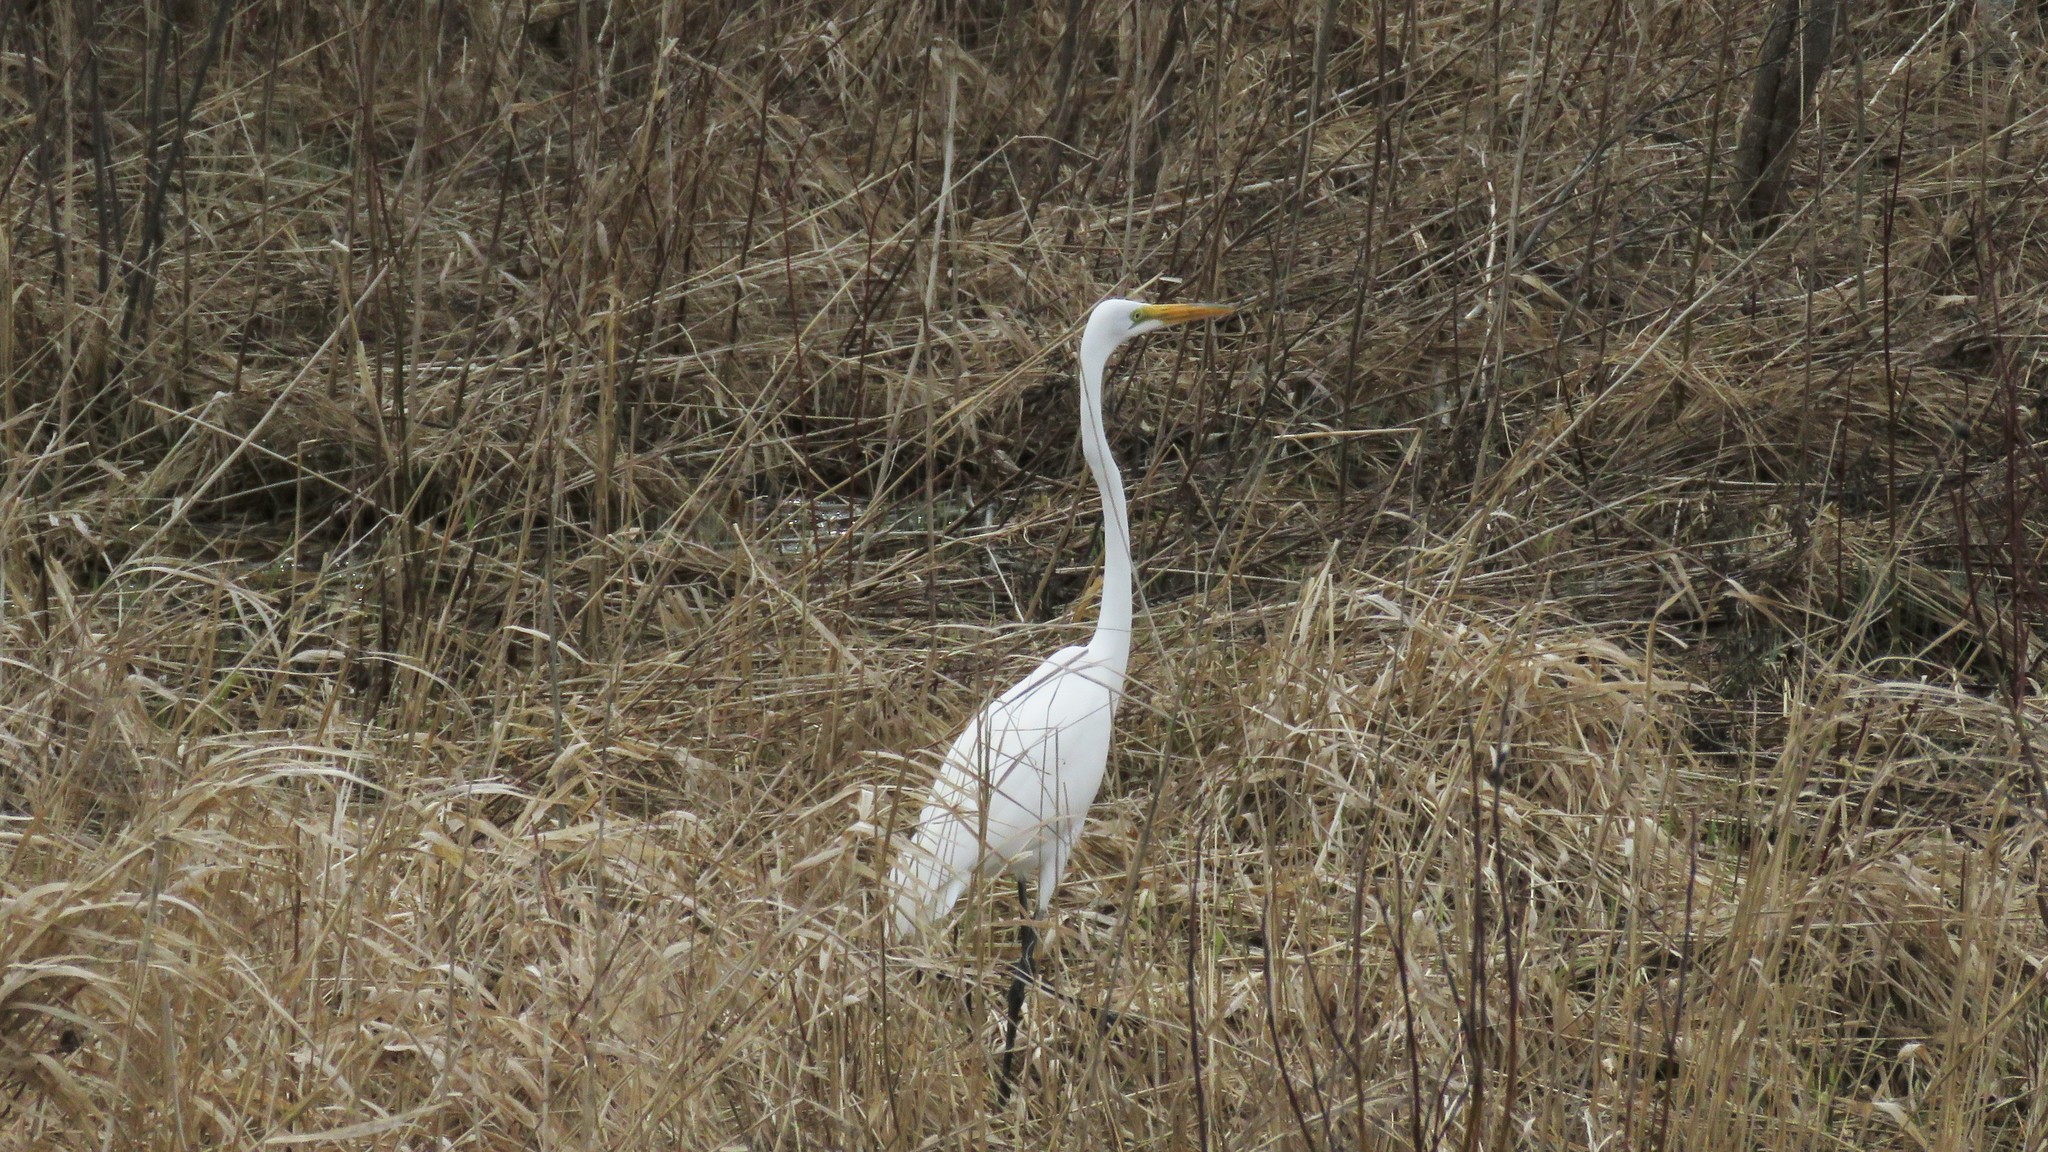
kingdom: Animalia
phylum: Chordata
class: Aves
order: Pelecaniformes
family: Ardeidae
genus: Ardea
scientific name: Ardea alba
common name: Great egret
